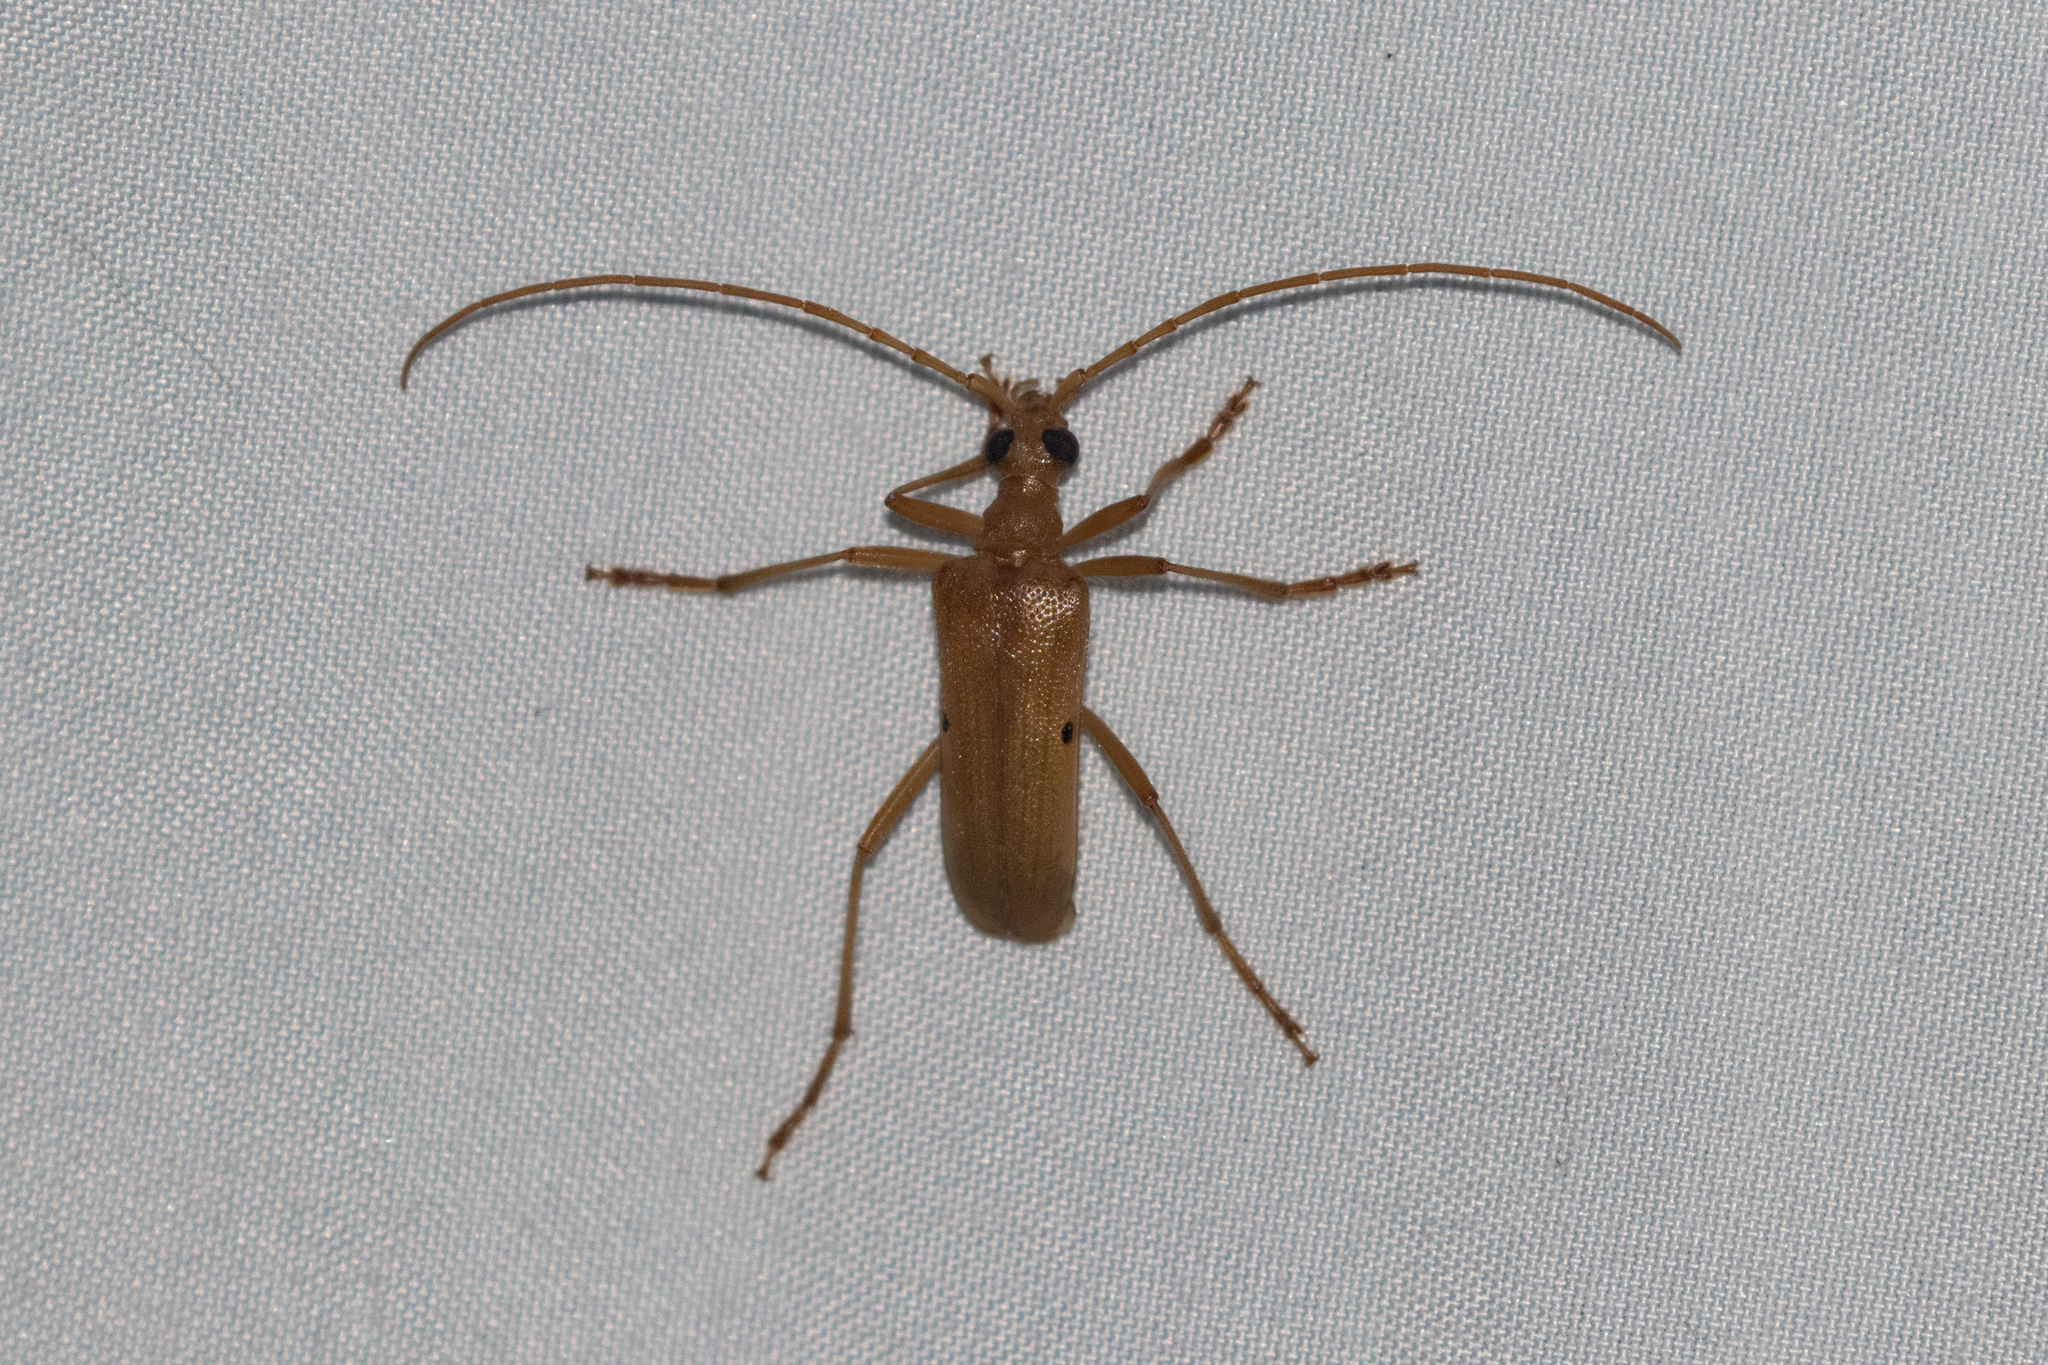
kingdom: Animalia
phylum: Arthropoda
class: Insecta
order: Coleoptera
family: Cerambycidae
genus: Centrodera
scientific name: Centrodera spurca
